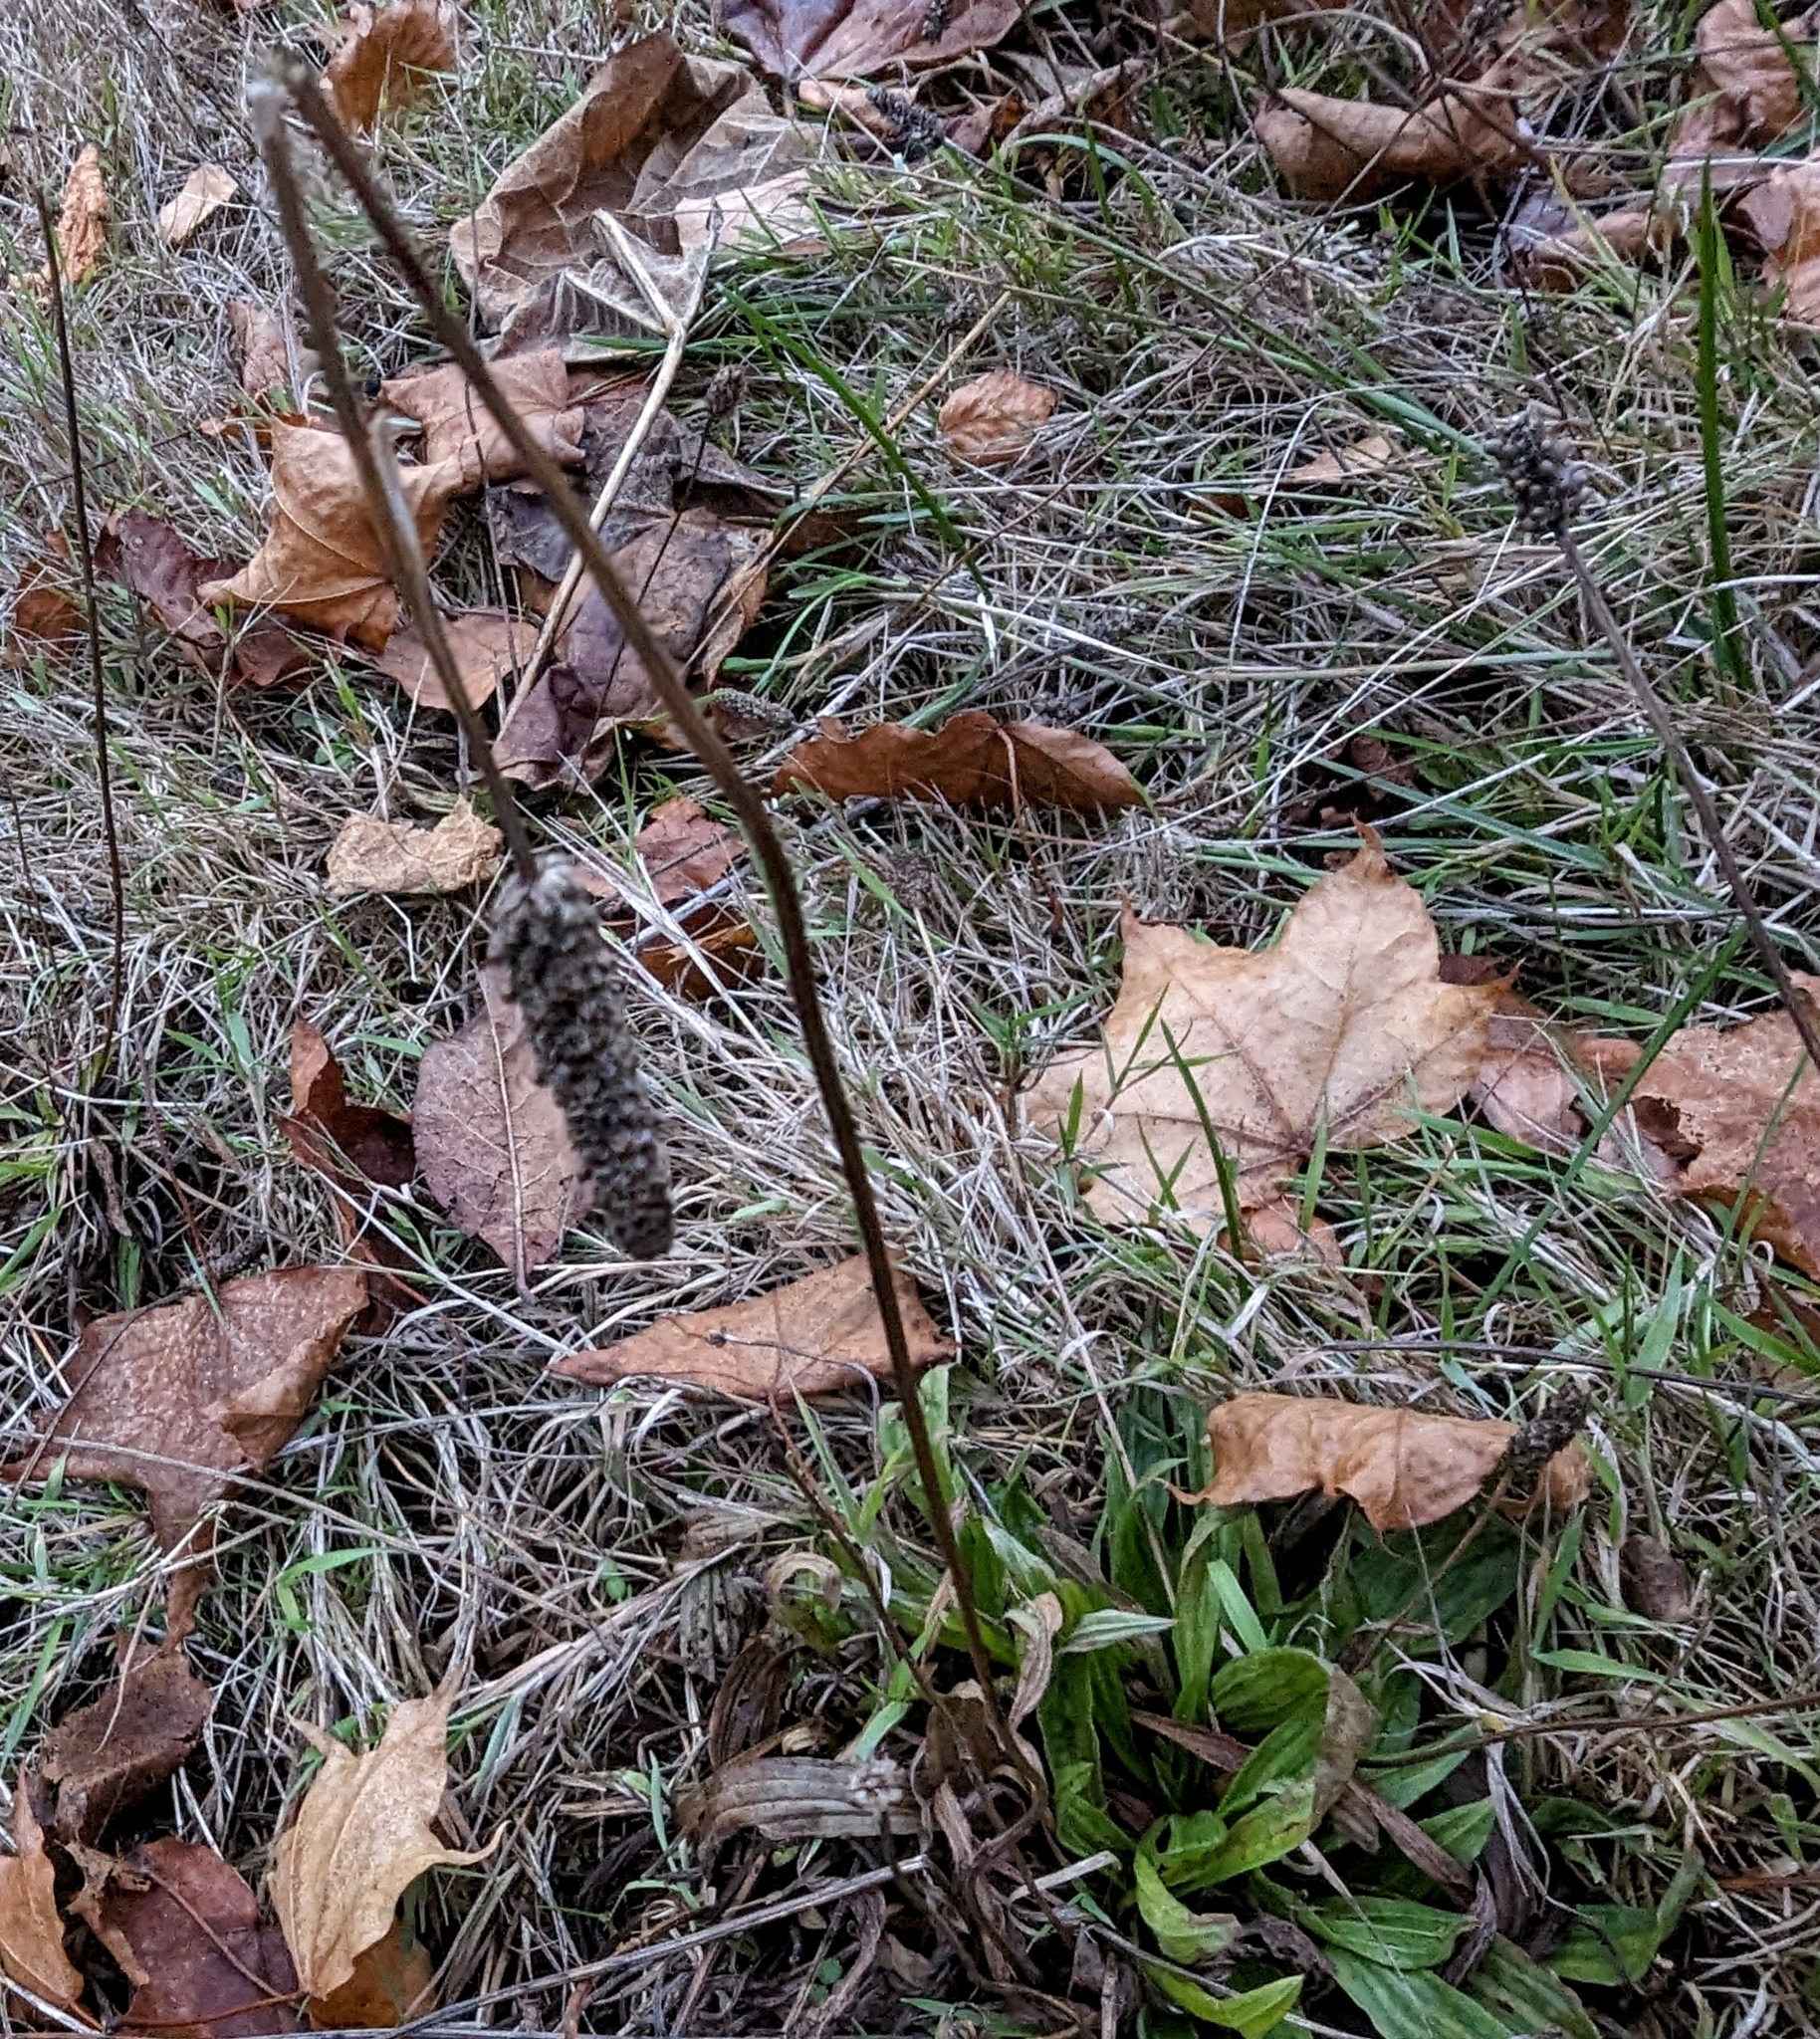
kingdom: Plantae
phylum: Tracheophyta
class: Magnoliopsida
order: Lamiales
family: Plantaginaceae
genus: Plantago
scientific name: Plantago lanceolata
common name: Ribwort plantain
